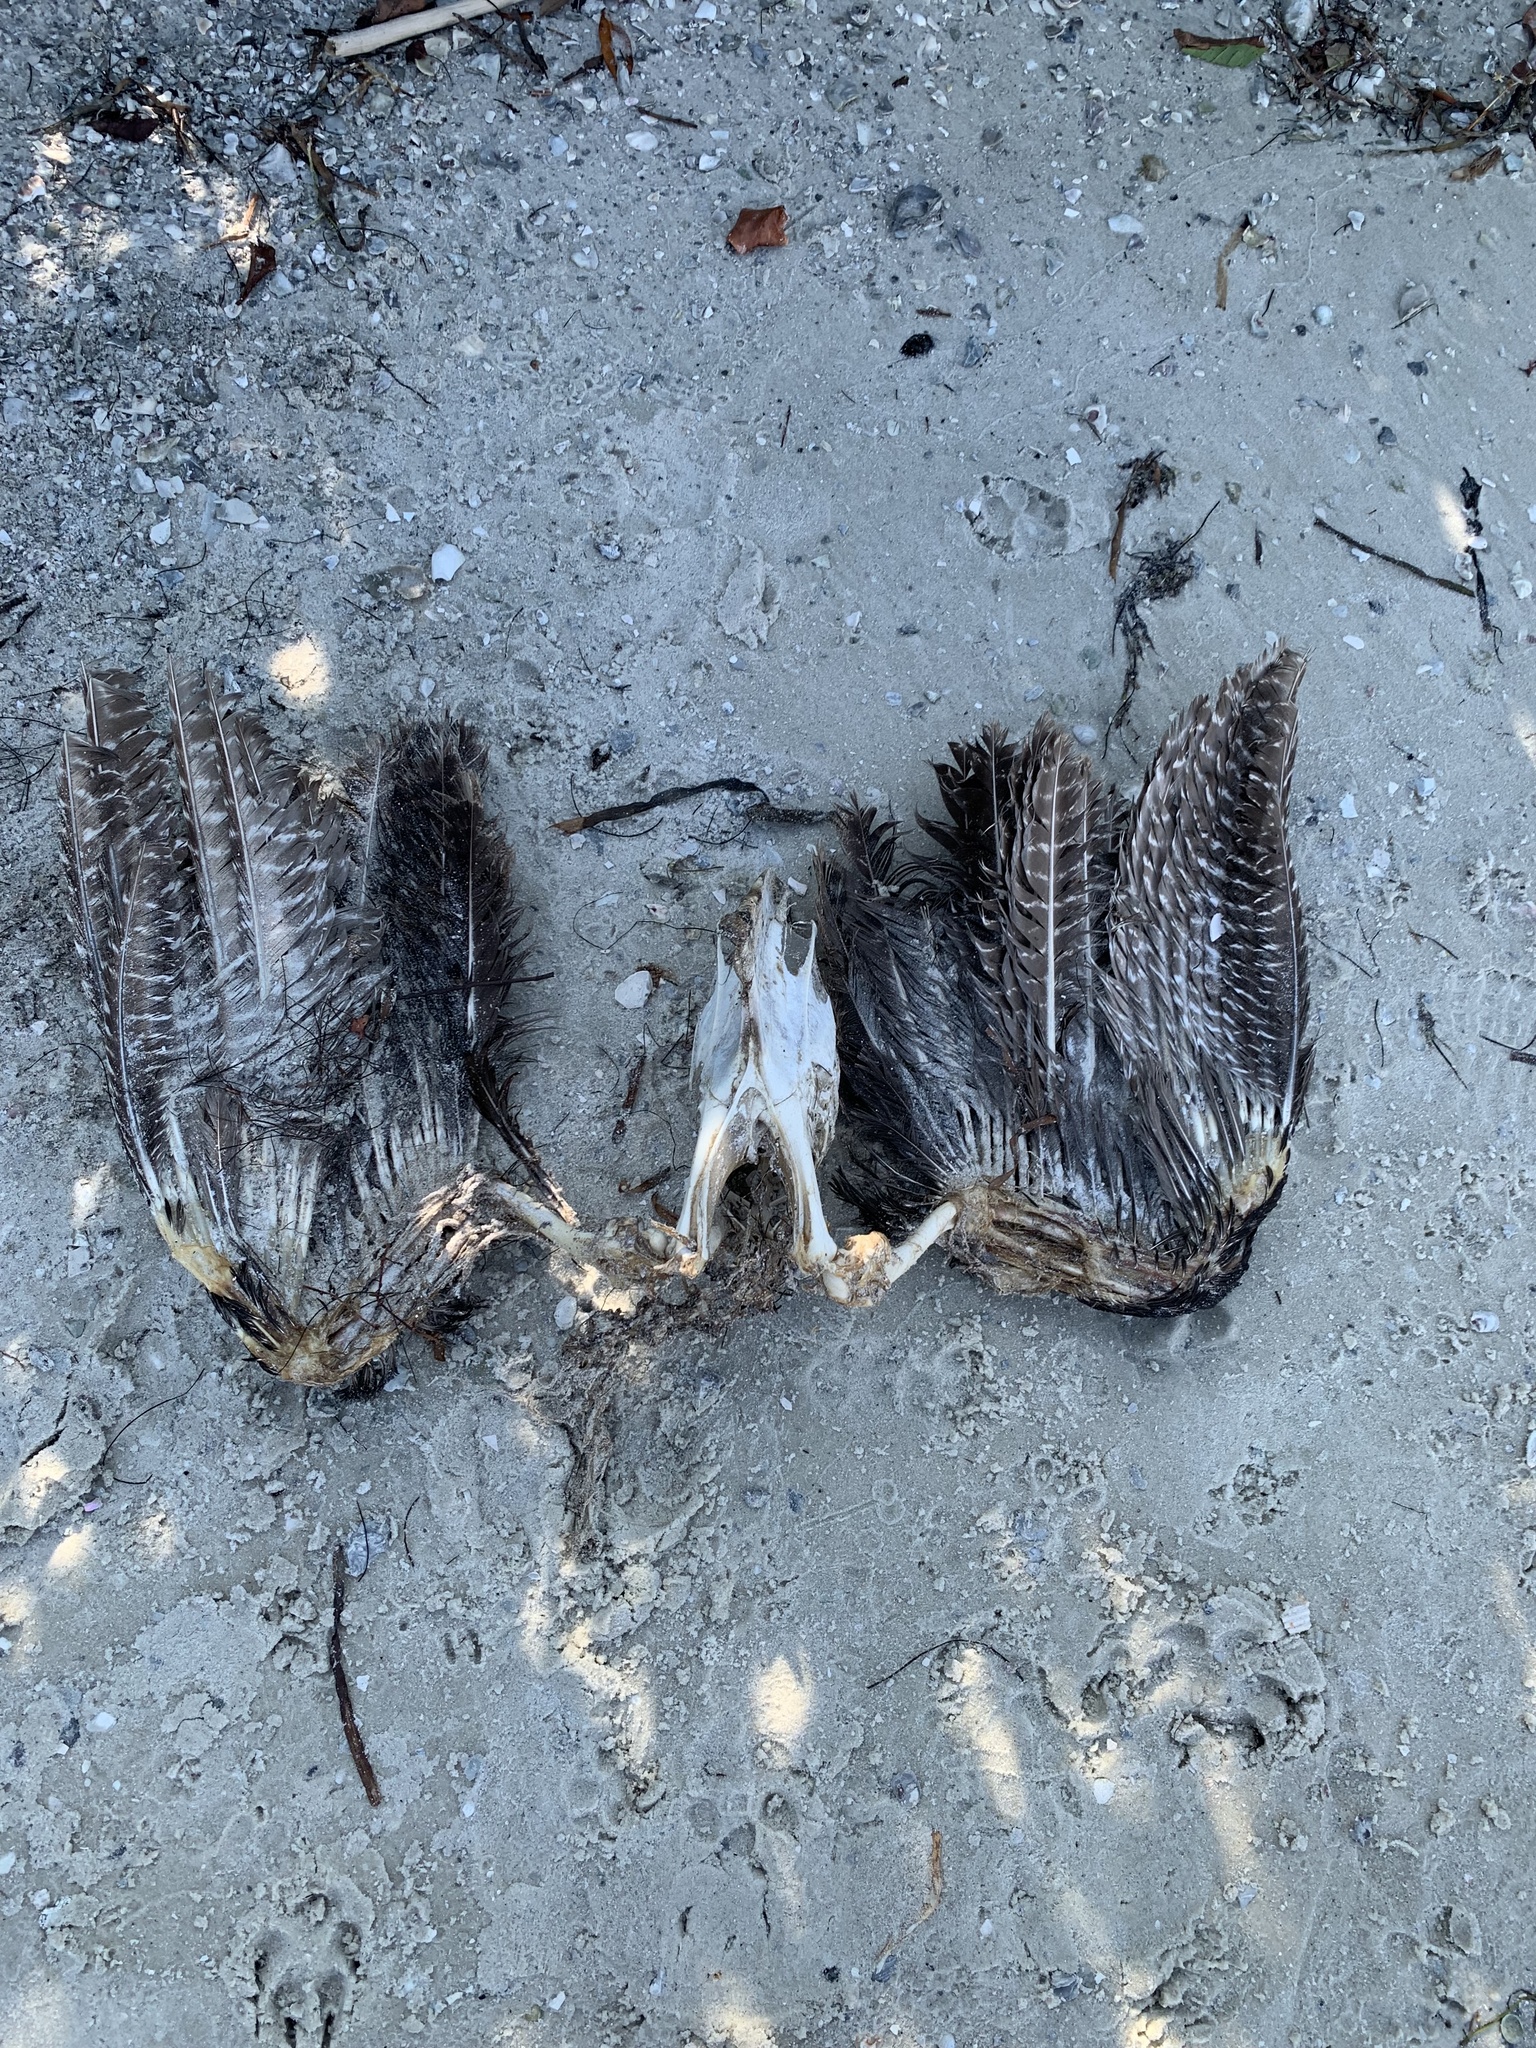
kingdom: Animalia
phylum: Chordata
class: Aves
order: Galliformes
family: Phasianidae
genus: Meleagris
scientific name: Meleagris gallopavo
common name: Wild turkey
